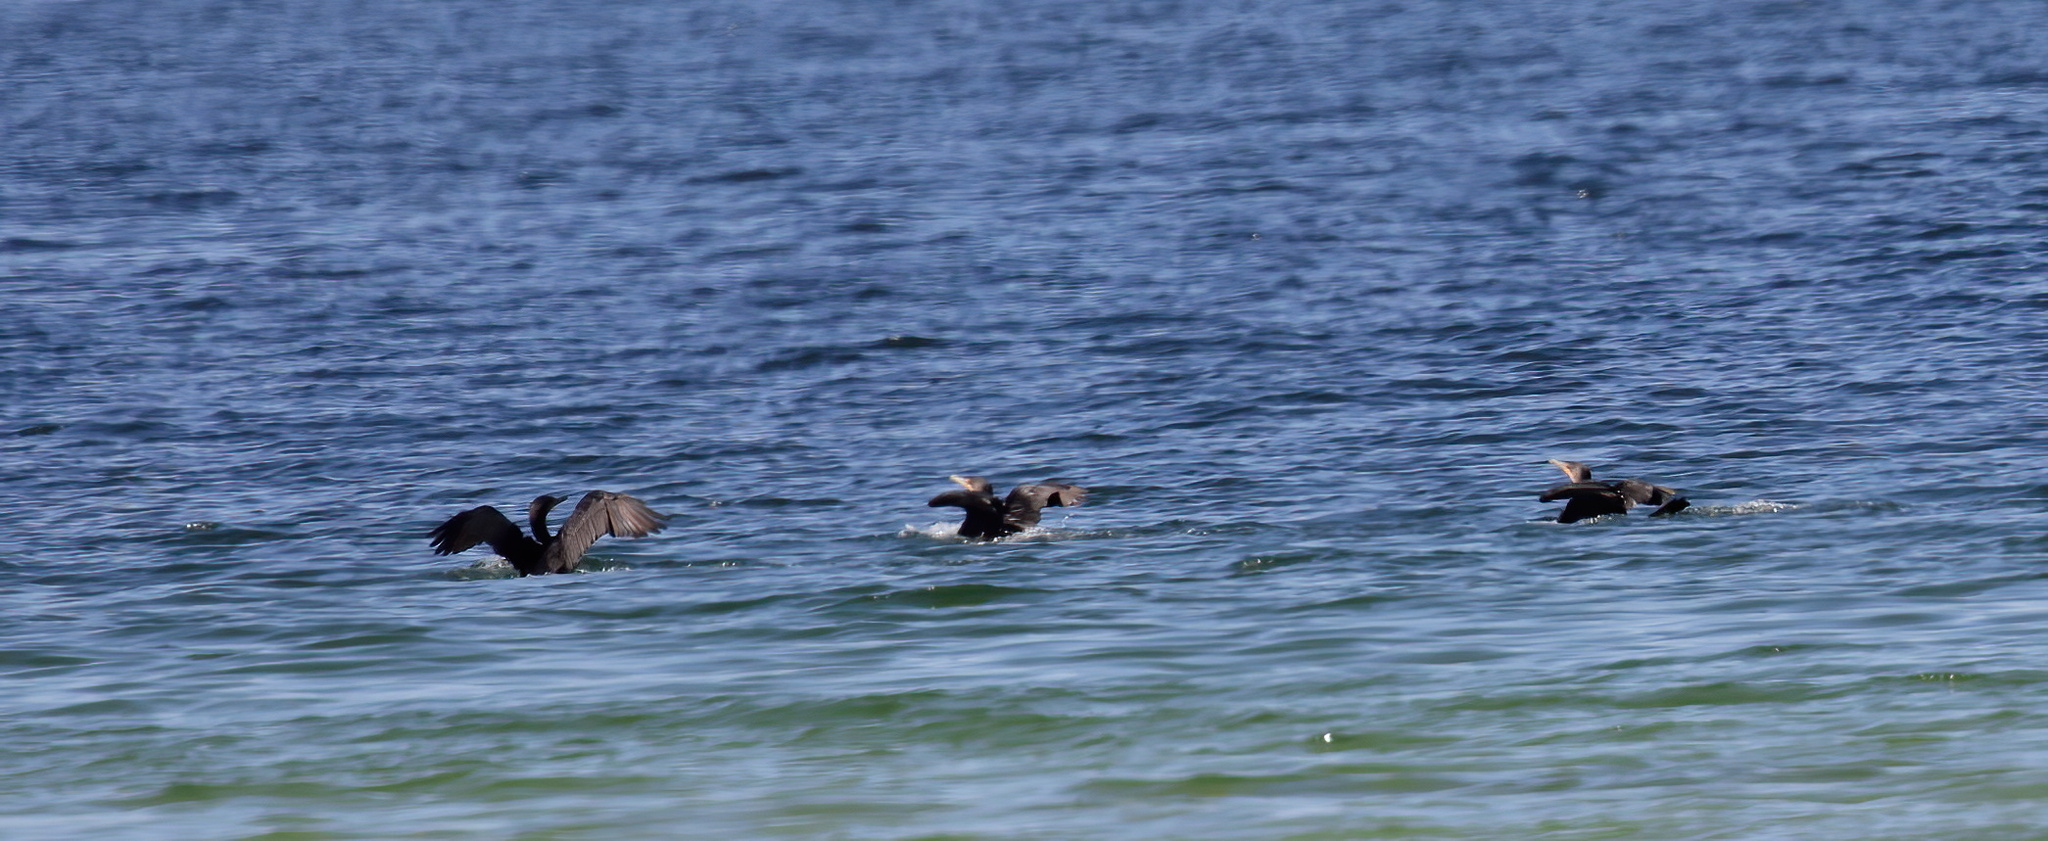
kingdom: Animalia
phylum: Chordata
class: Aves
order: Suliformes
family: Phalacrocoracidae
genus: Phalacrocorax
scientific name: Phalacrocorax auritus
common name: Double-crested cormorant
